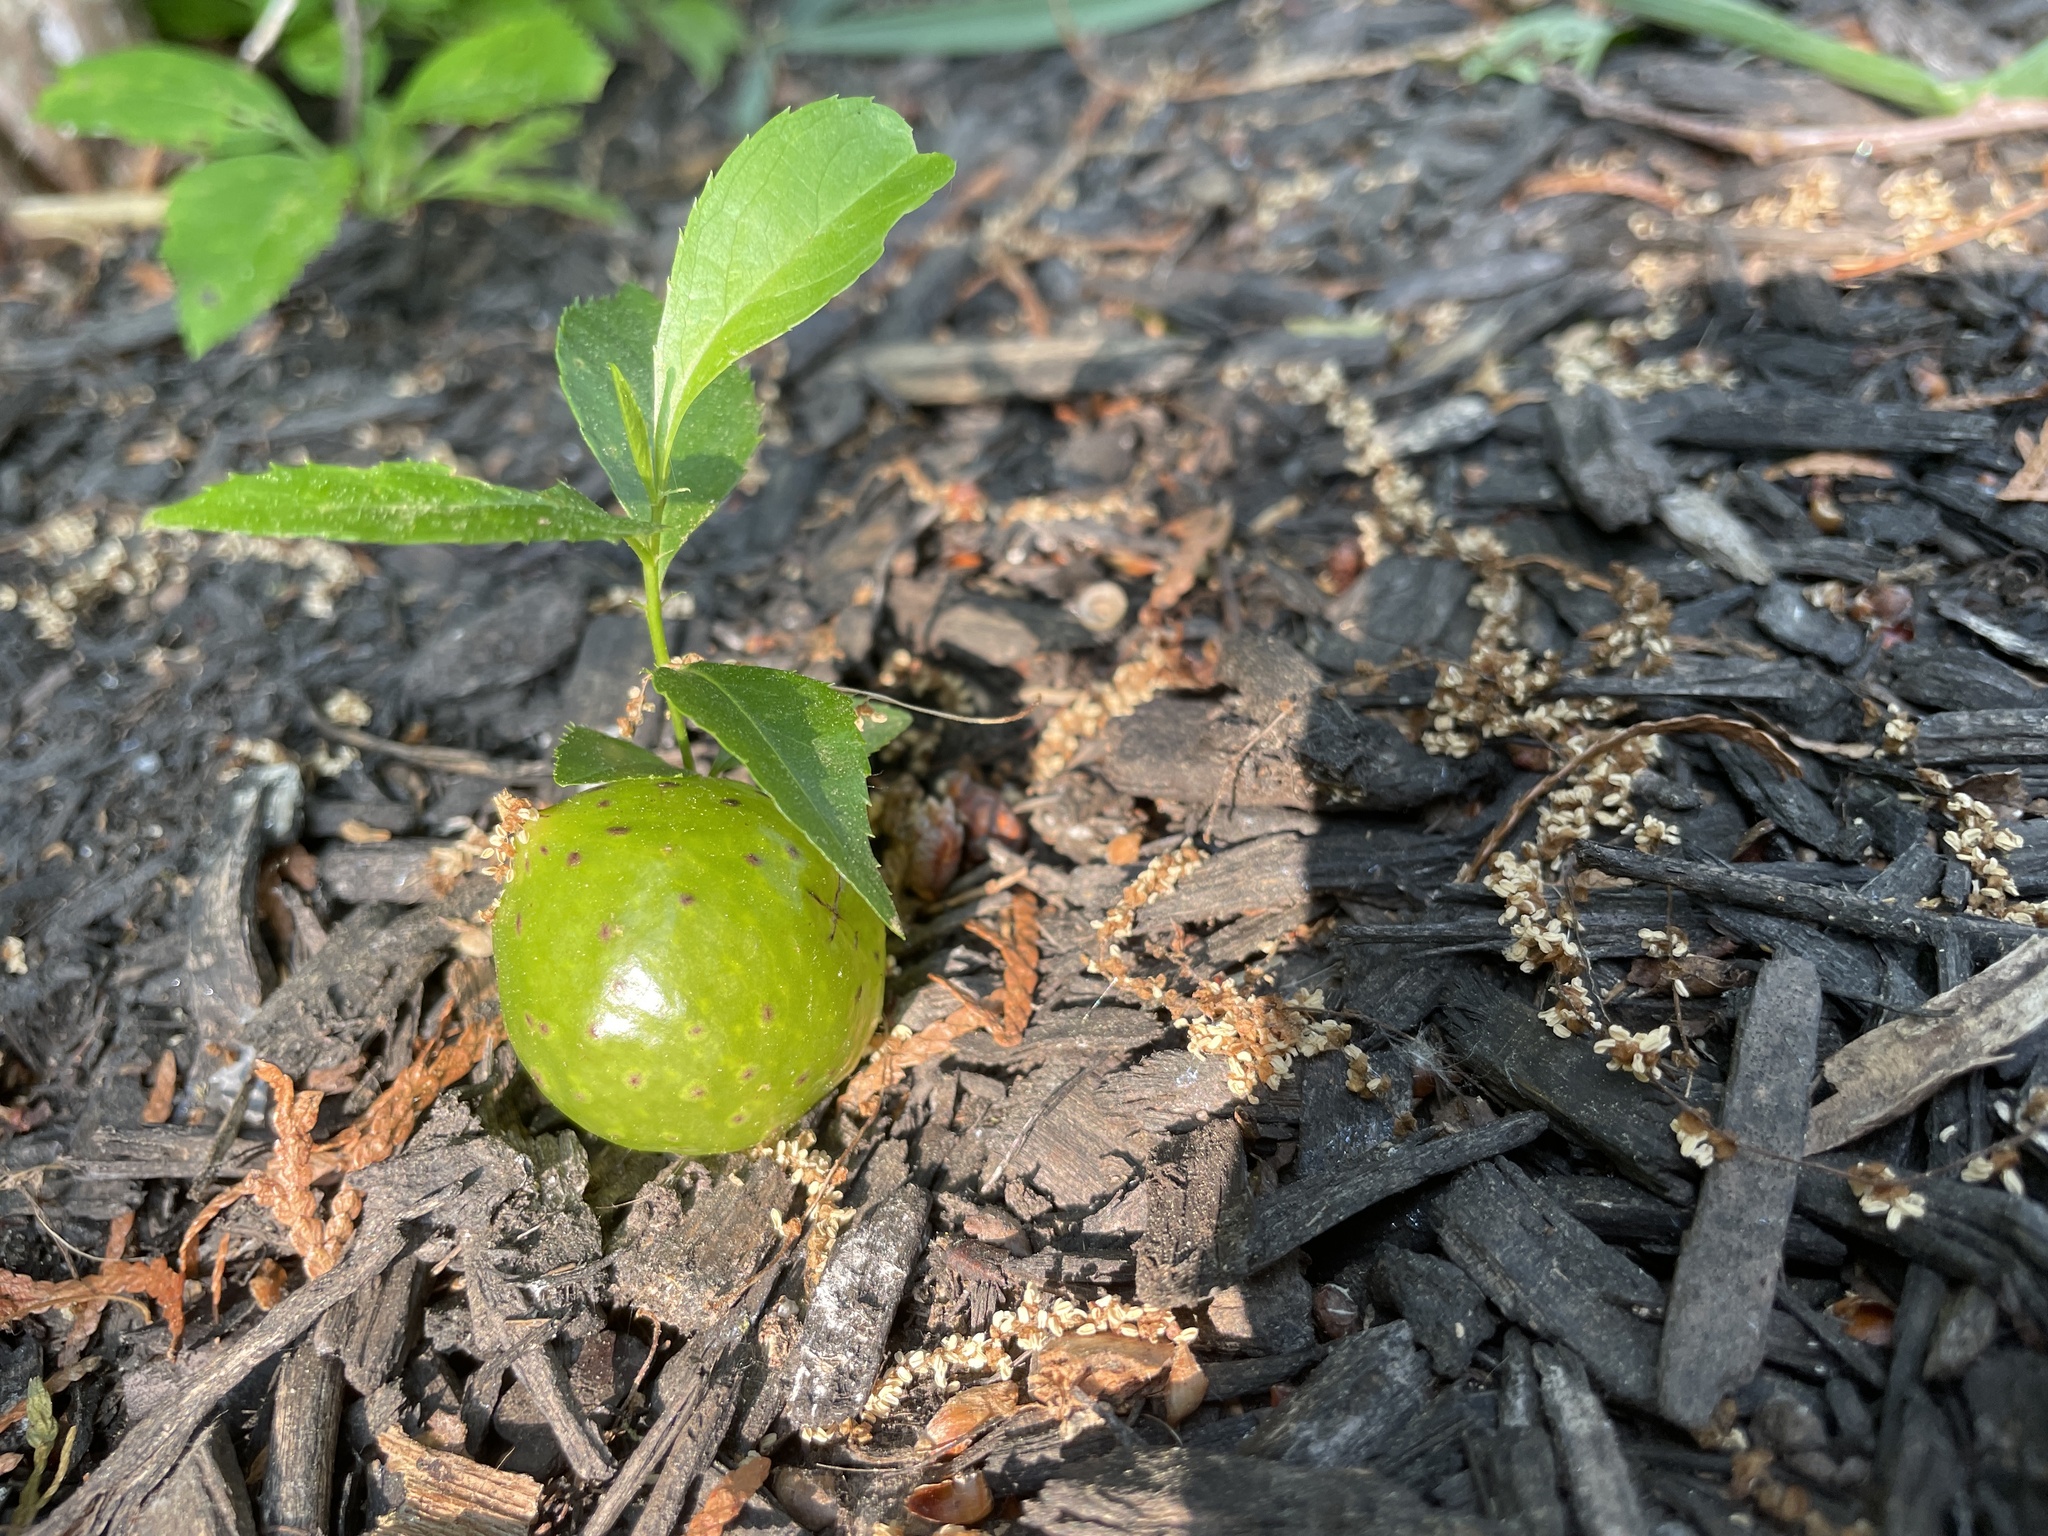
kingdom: Animalia
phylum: Arthropoda
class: Insecta
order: Hymenoptera
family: Cynipidae
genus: Amphibolips
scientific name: Amphibolips
